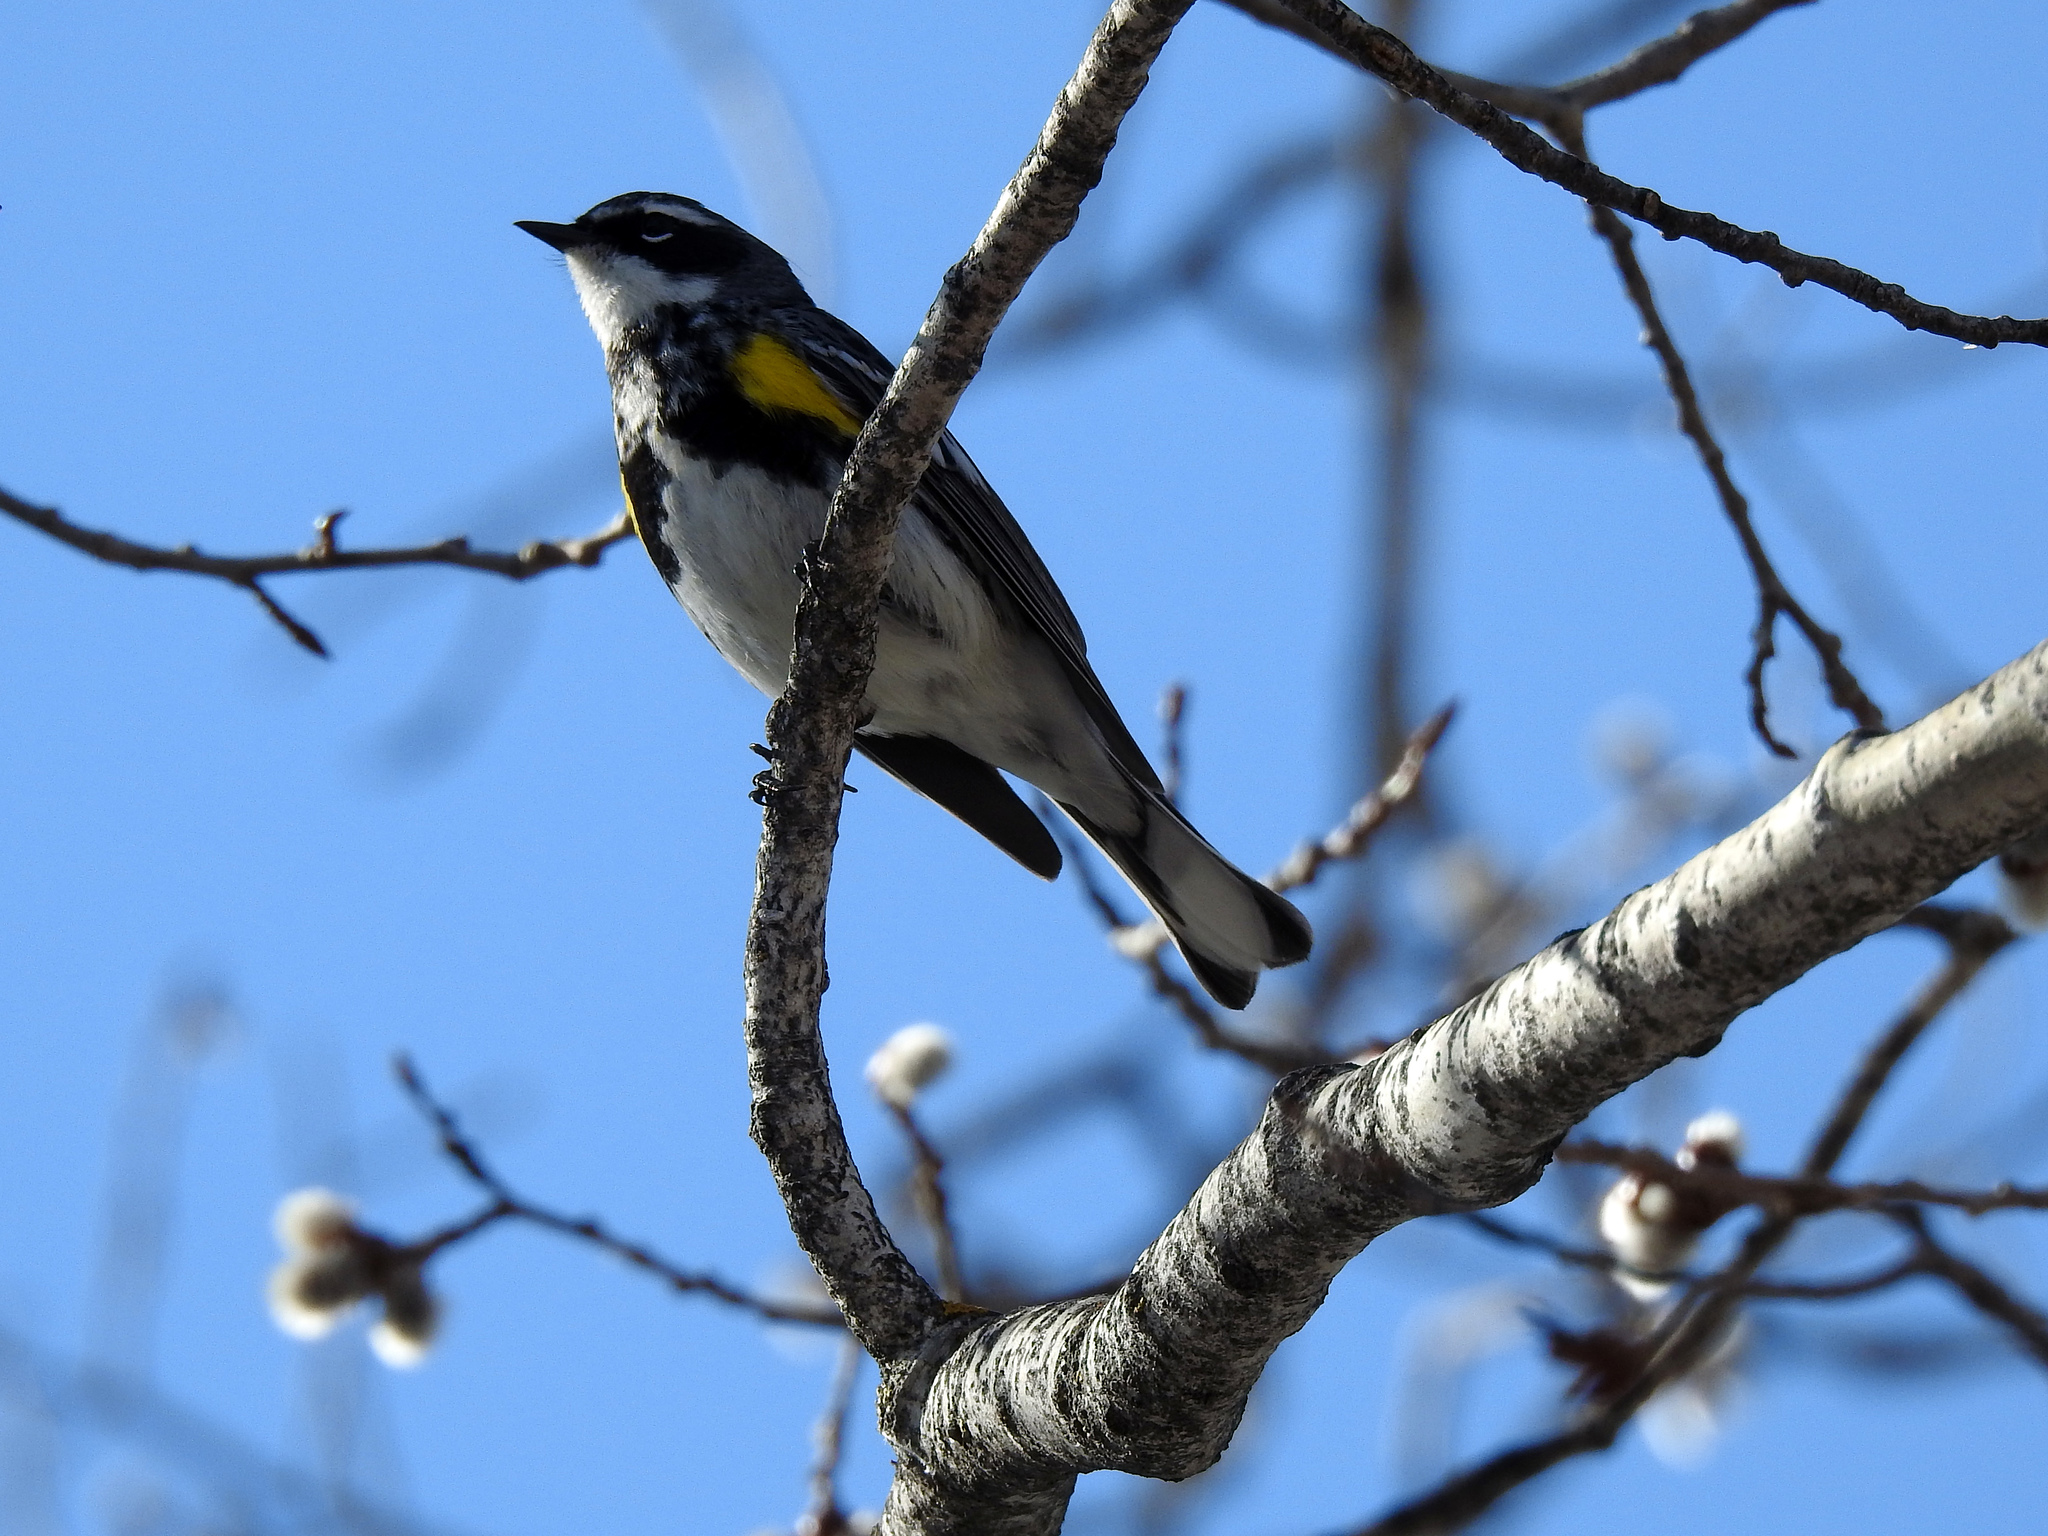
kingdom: Animalia
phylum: Chordata
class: Aves
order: Passeriformes
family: Parulidae
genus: Setophaga
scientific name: Setophaga coronata
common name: Myrtle warbler
